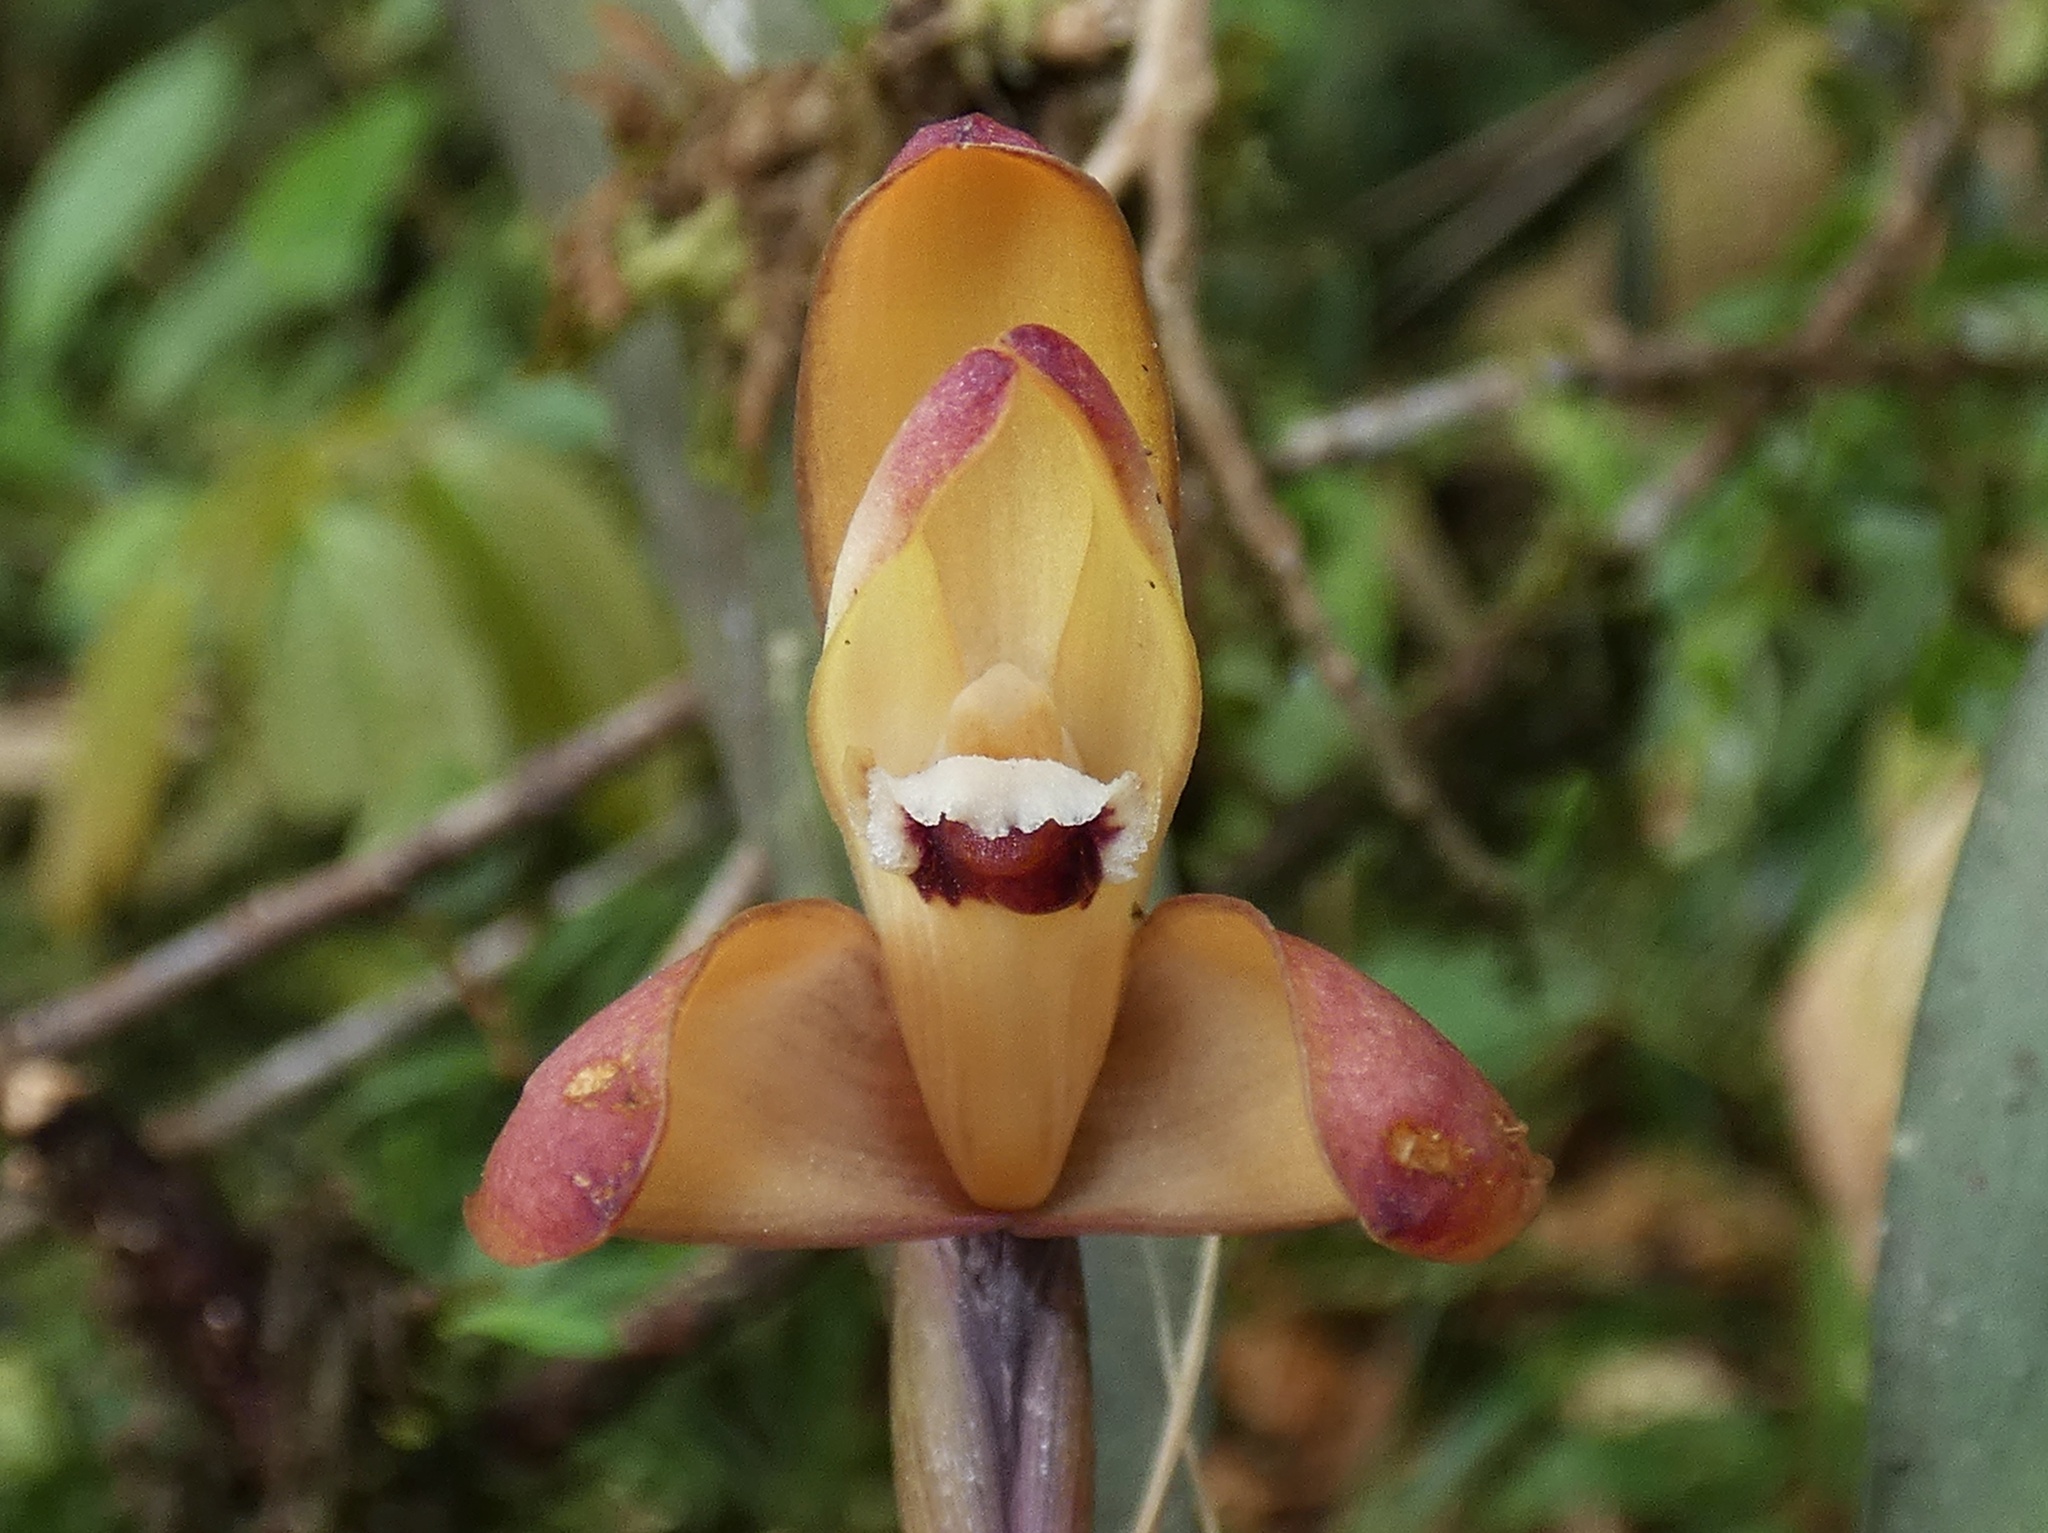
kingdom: Plantae
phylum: Tracheophyta
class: Liliopsida
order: Asparagales
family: Orchidaceae
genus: Maxillaria
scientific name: Maxillaria porrecta
